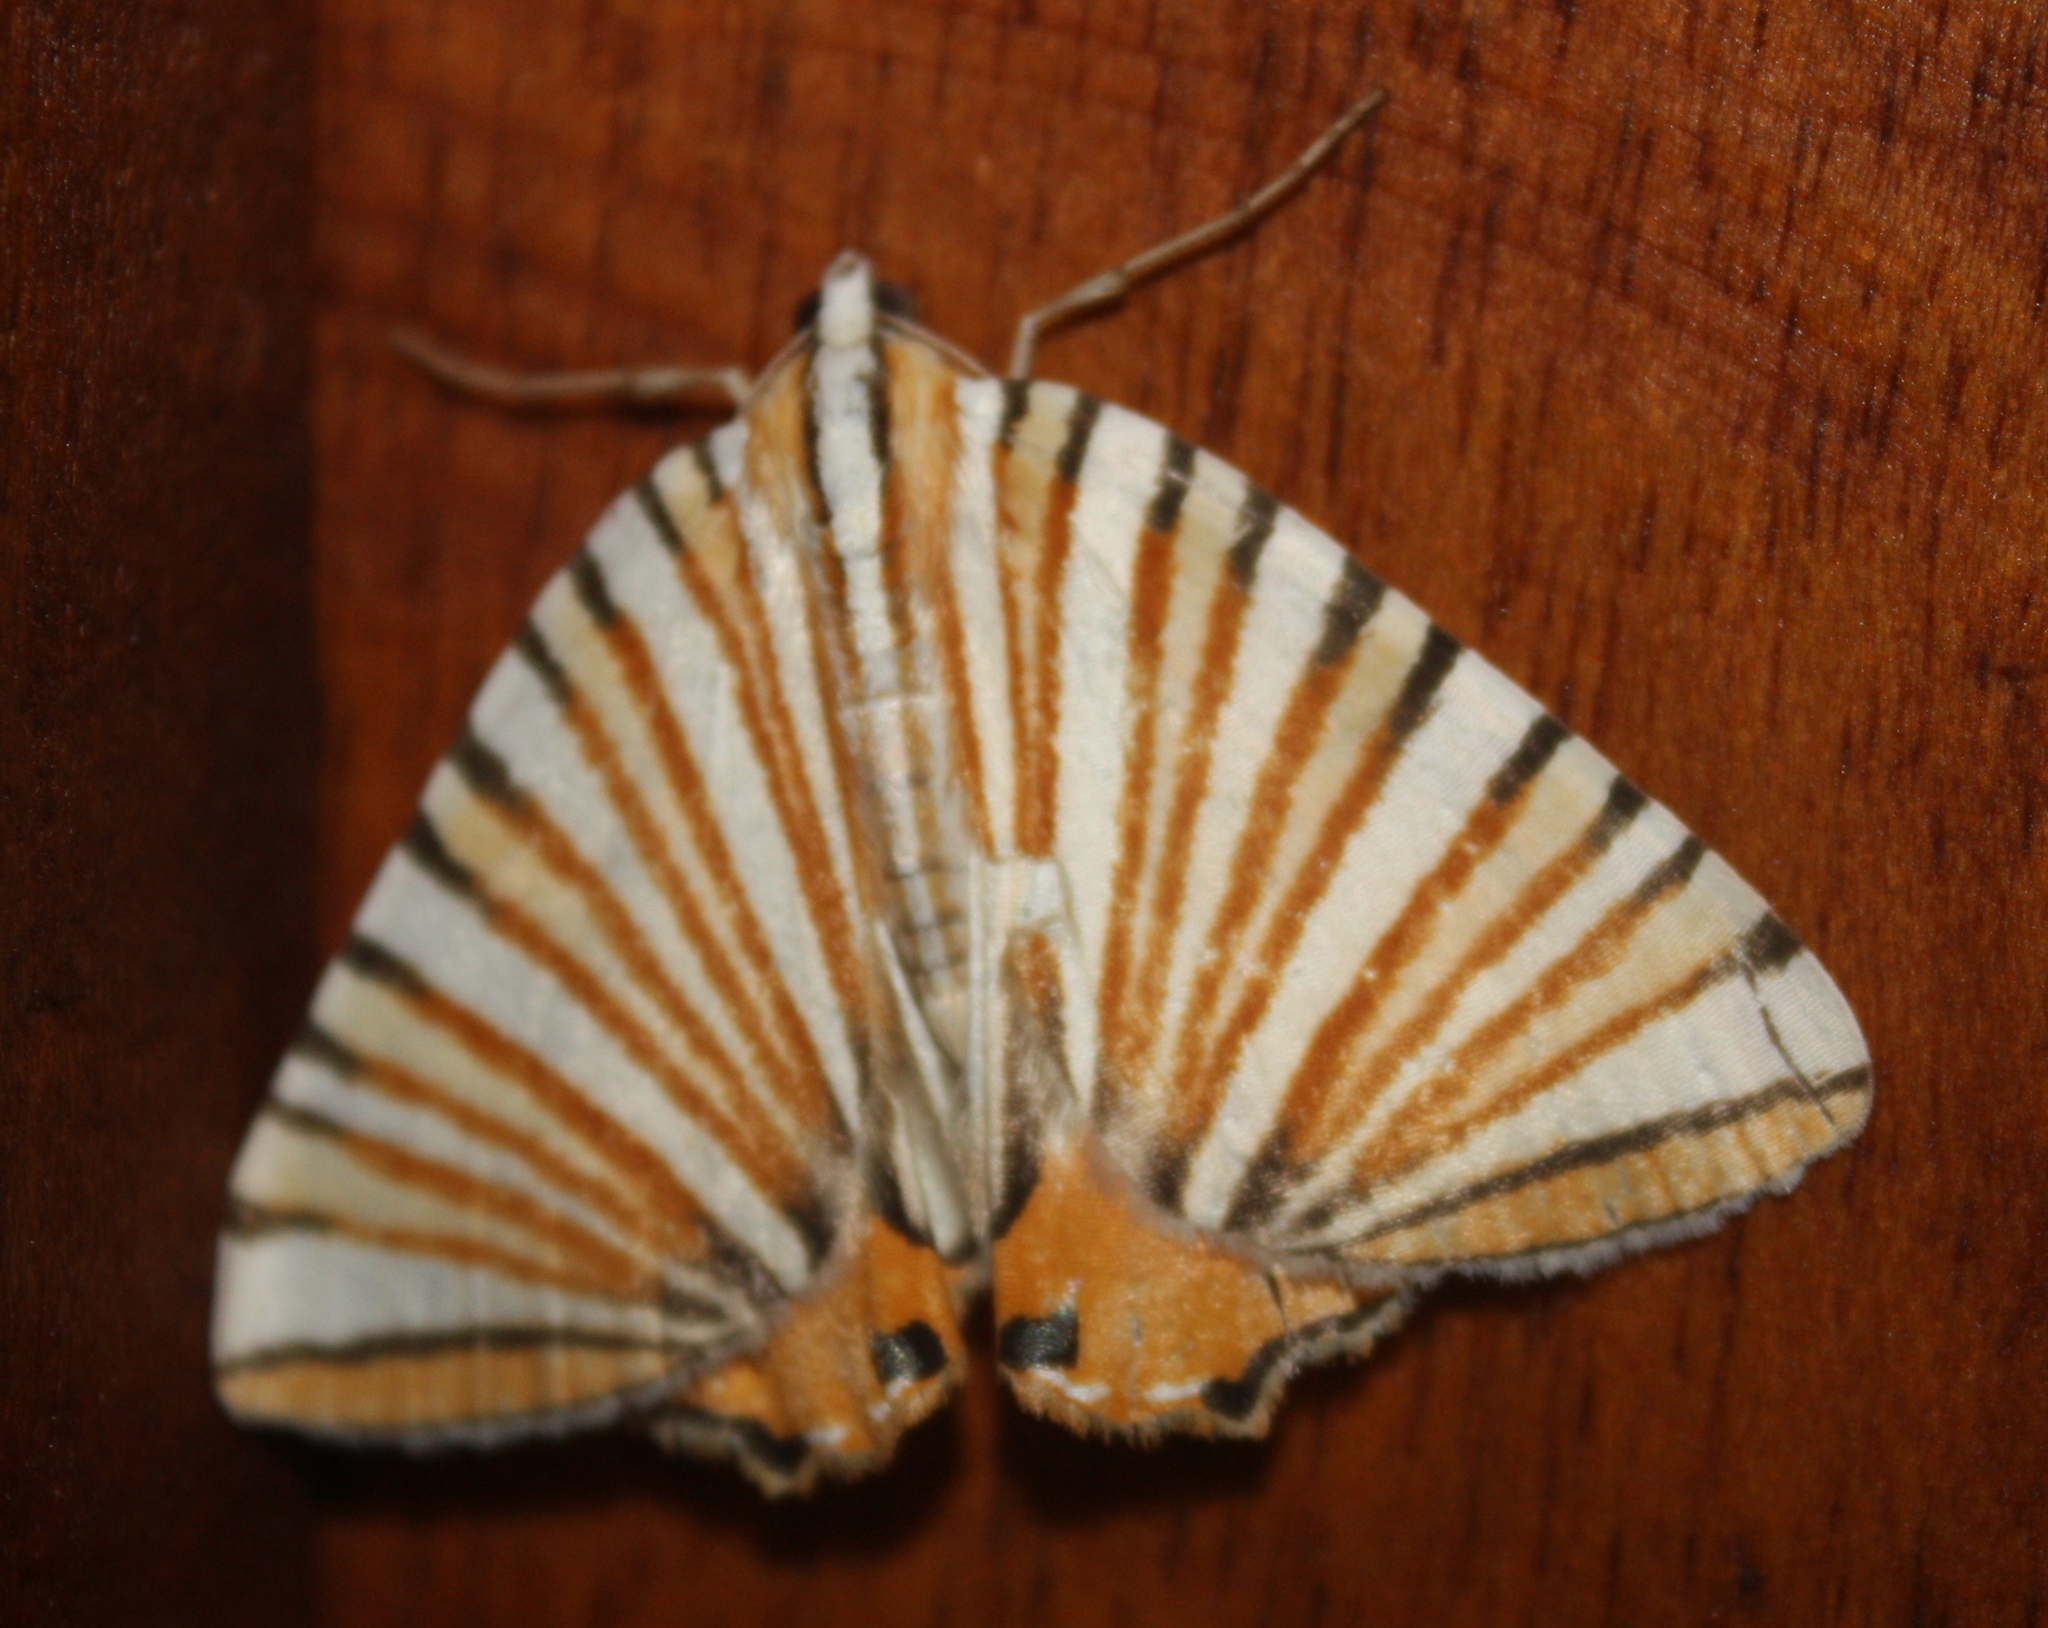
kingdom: Animalia
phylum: Arthropoda
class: Insecta
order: Lepidoptera
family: Geometridae
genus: Pityeja
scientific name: Pityeja histrionaria
